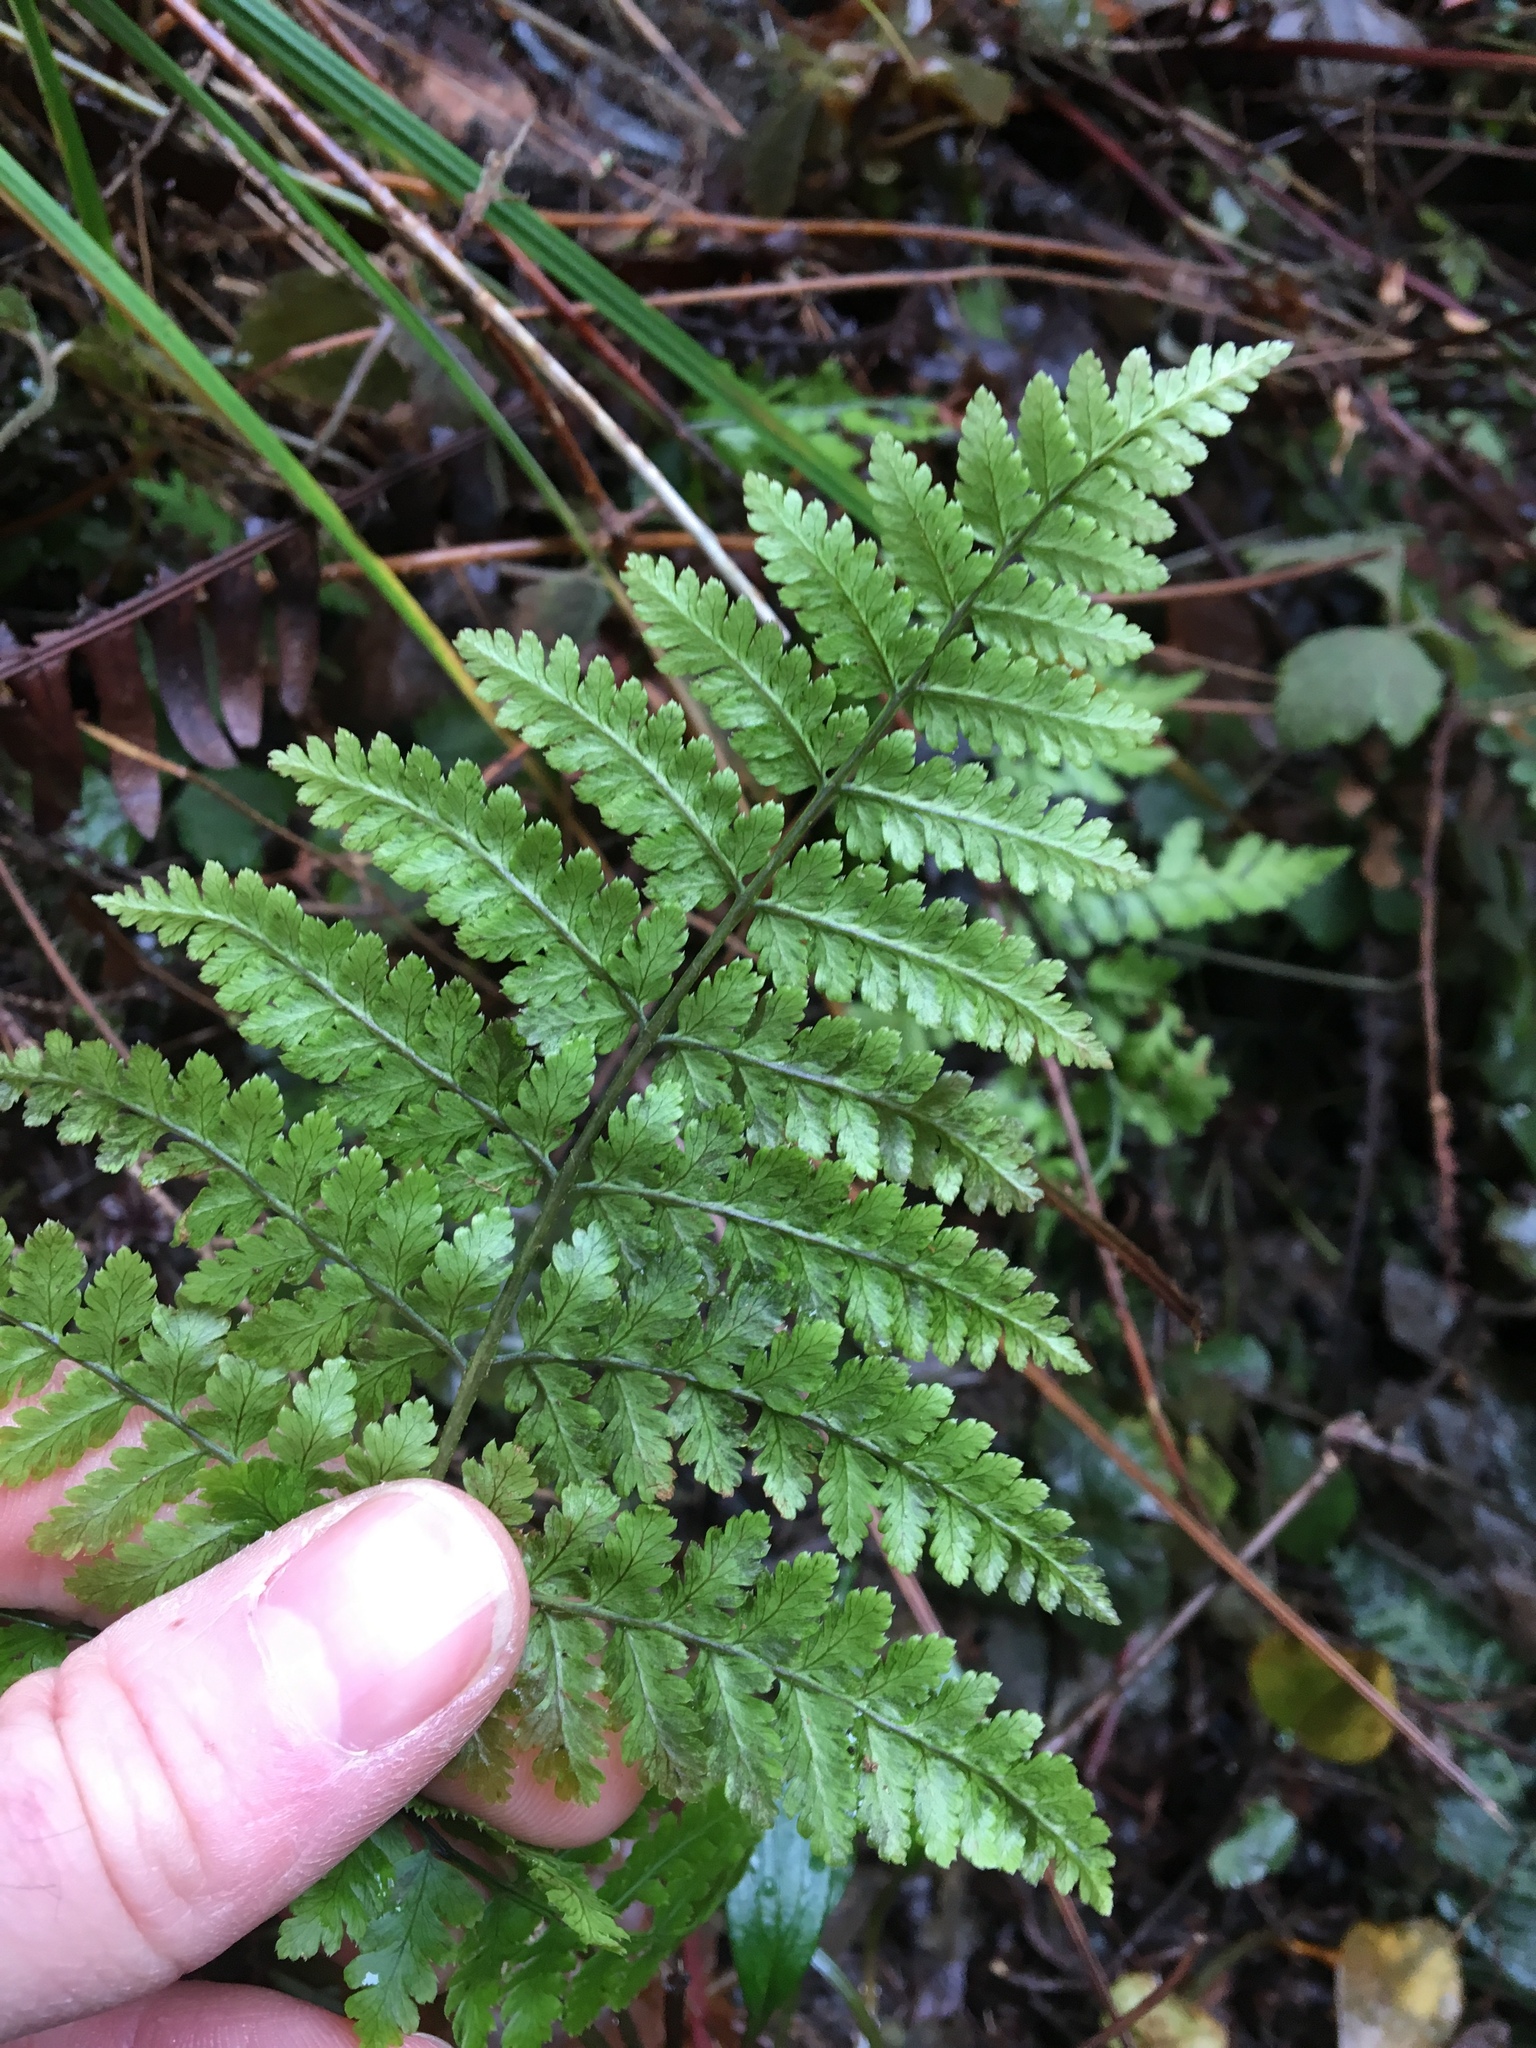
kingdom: Plantae
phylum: Tracheophyta
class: Polypodiopsida
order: Polypodiales
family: Dryopteridaceae
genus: Dryopteris
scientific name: Dryopteris expansa
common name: Northern buckler fern
